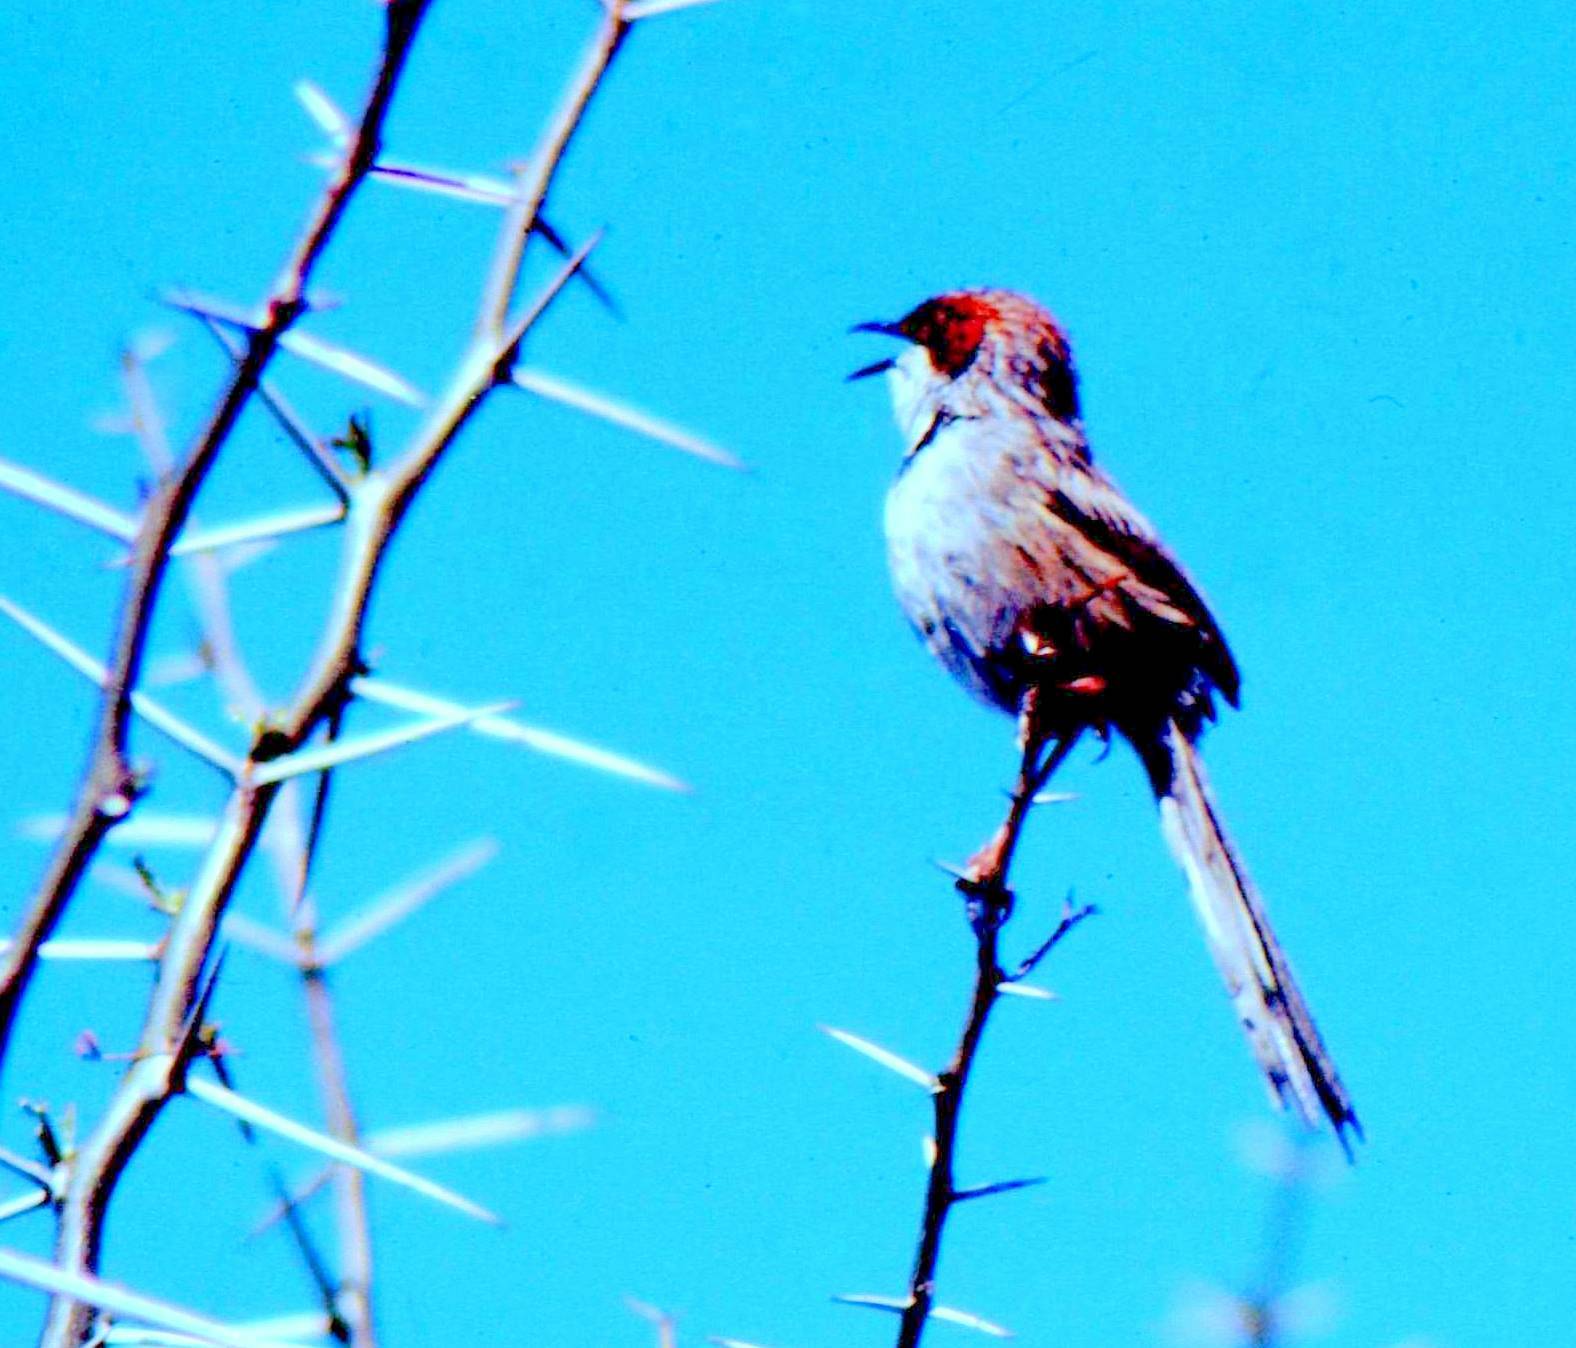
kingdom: Animalia
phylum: Chordata
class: Aves
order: Passeriformes
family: Cisticolidae
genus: Malcorus
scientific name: Malcorus pectoralis
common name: Rufous-eared warbler
